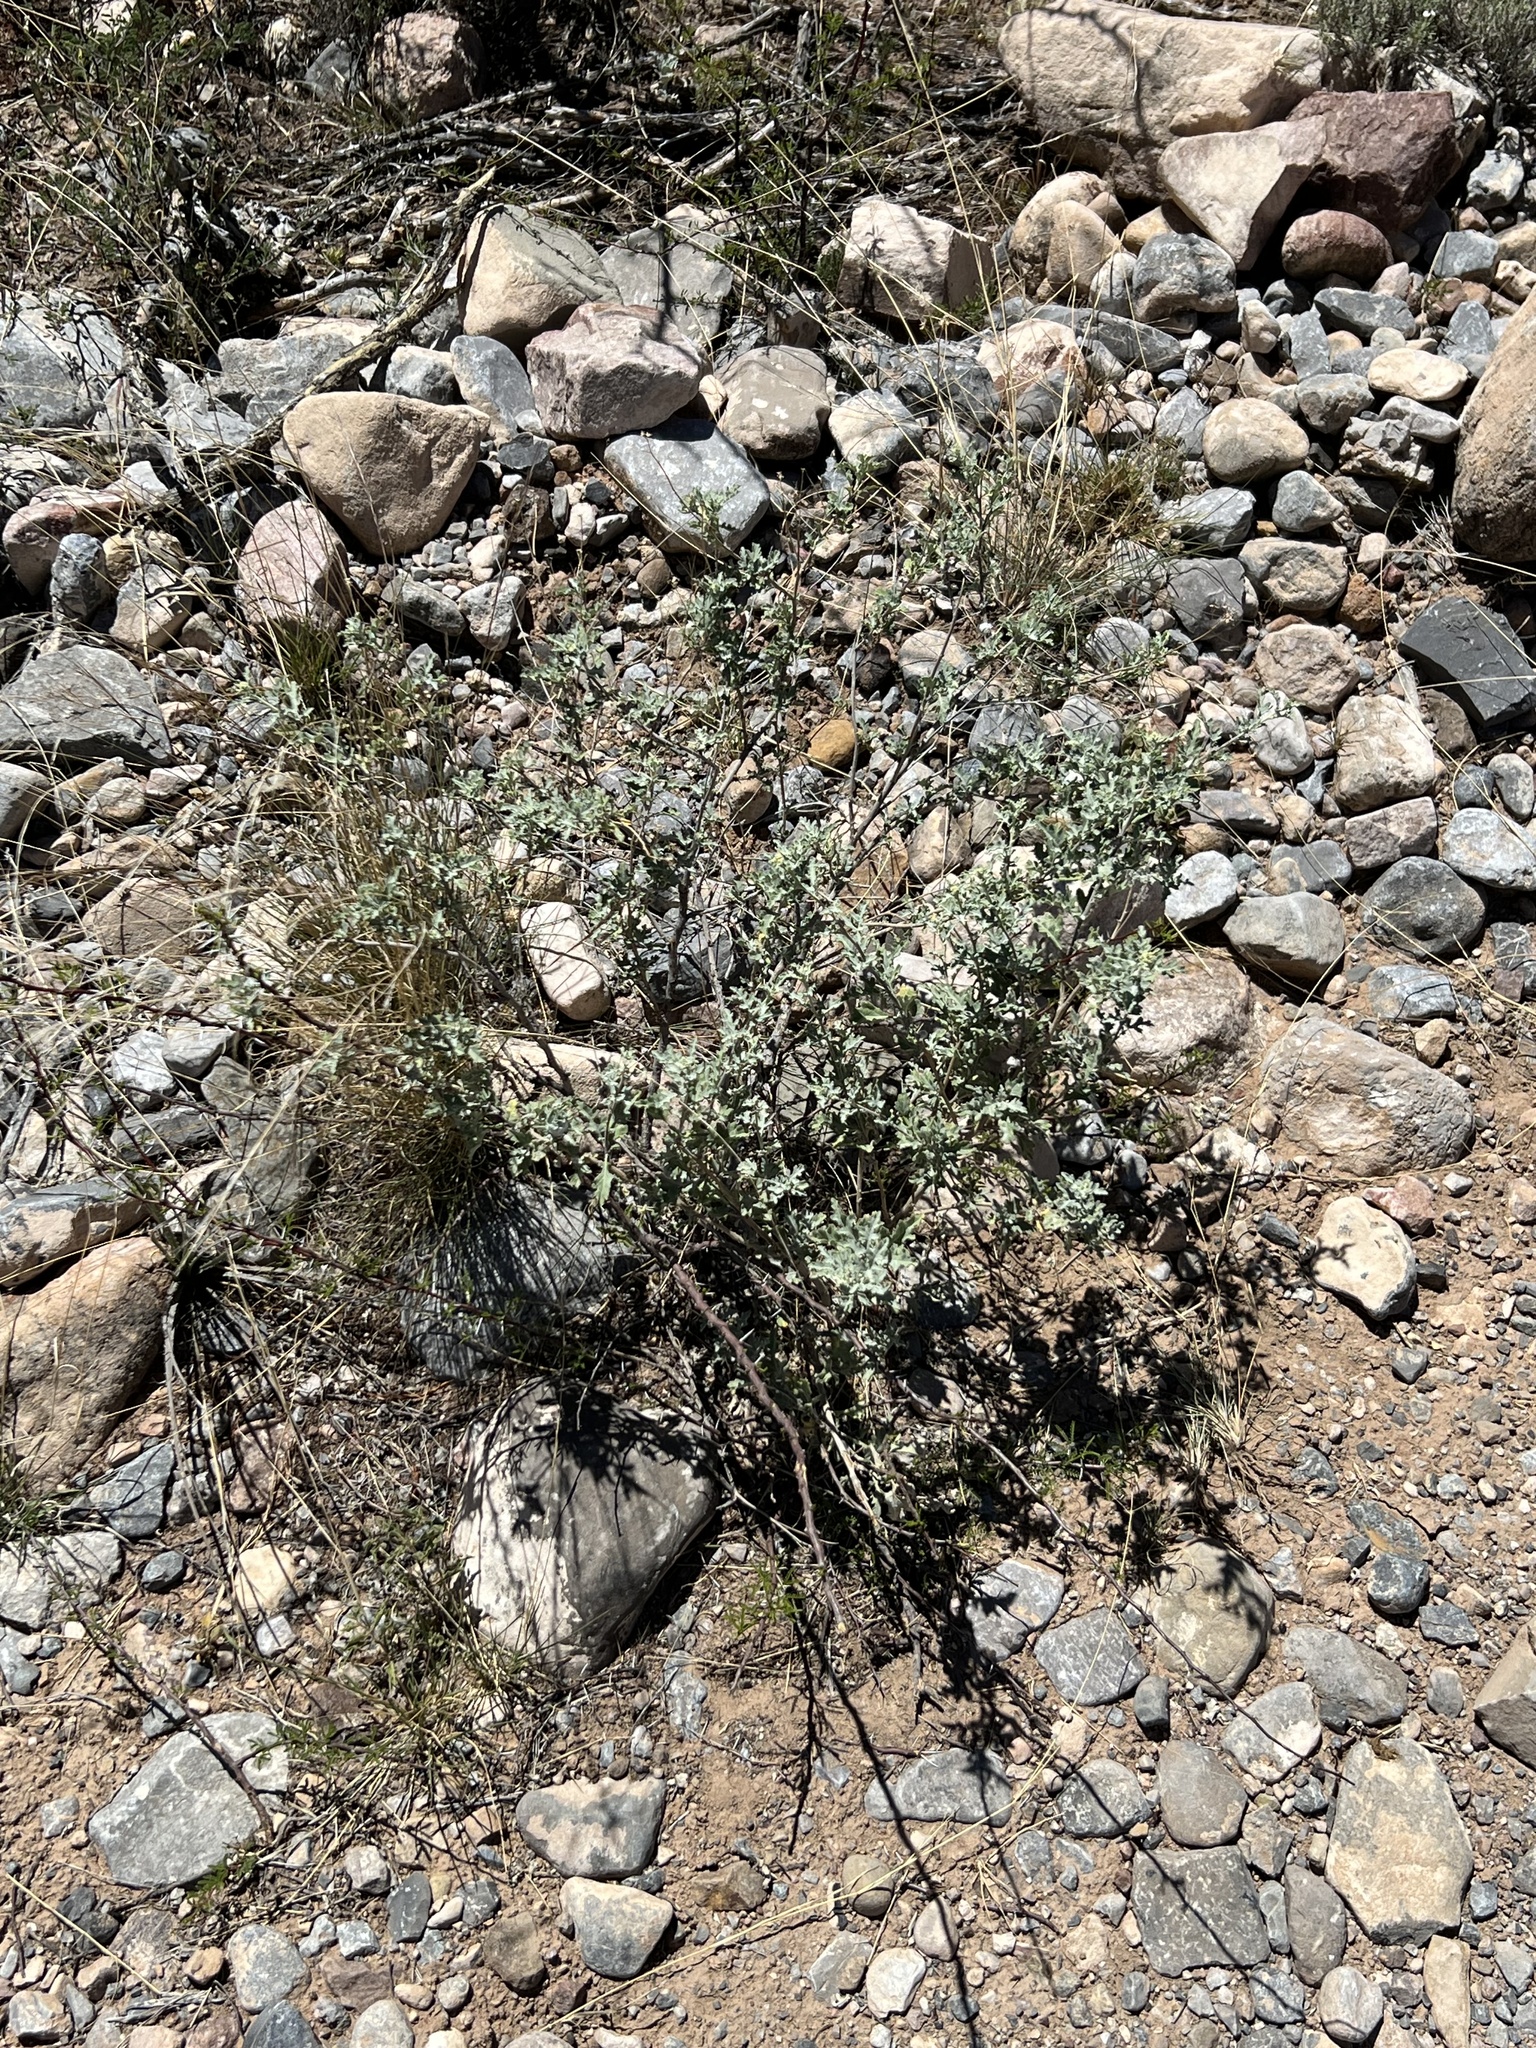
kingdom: Plantae
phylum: Tracheophyta
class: Magnoliopsida
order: Asterales
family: Asteraceae
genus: Parthenium
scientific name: Parthenium incanum
